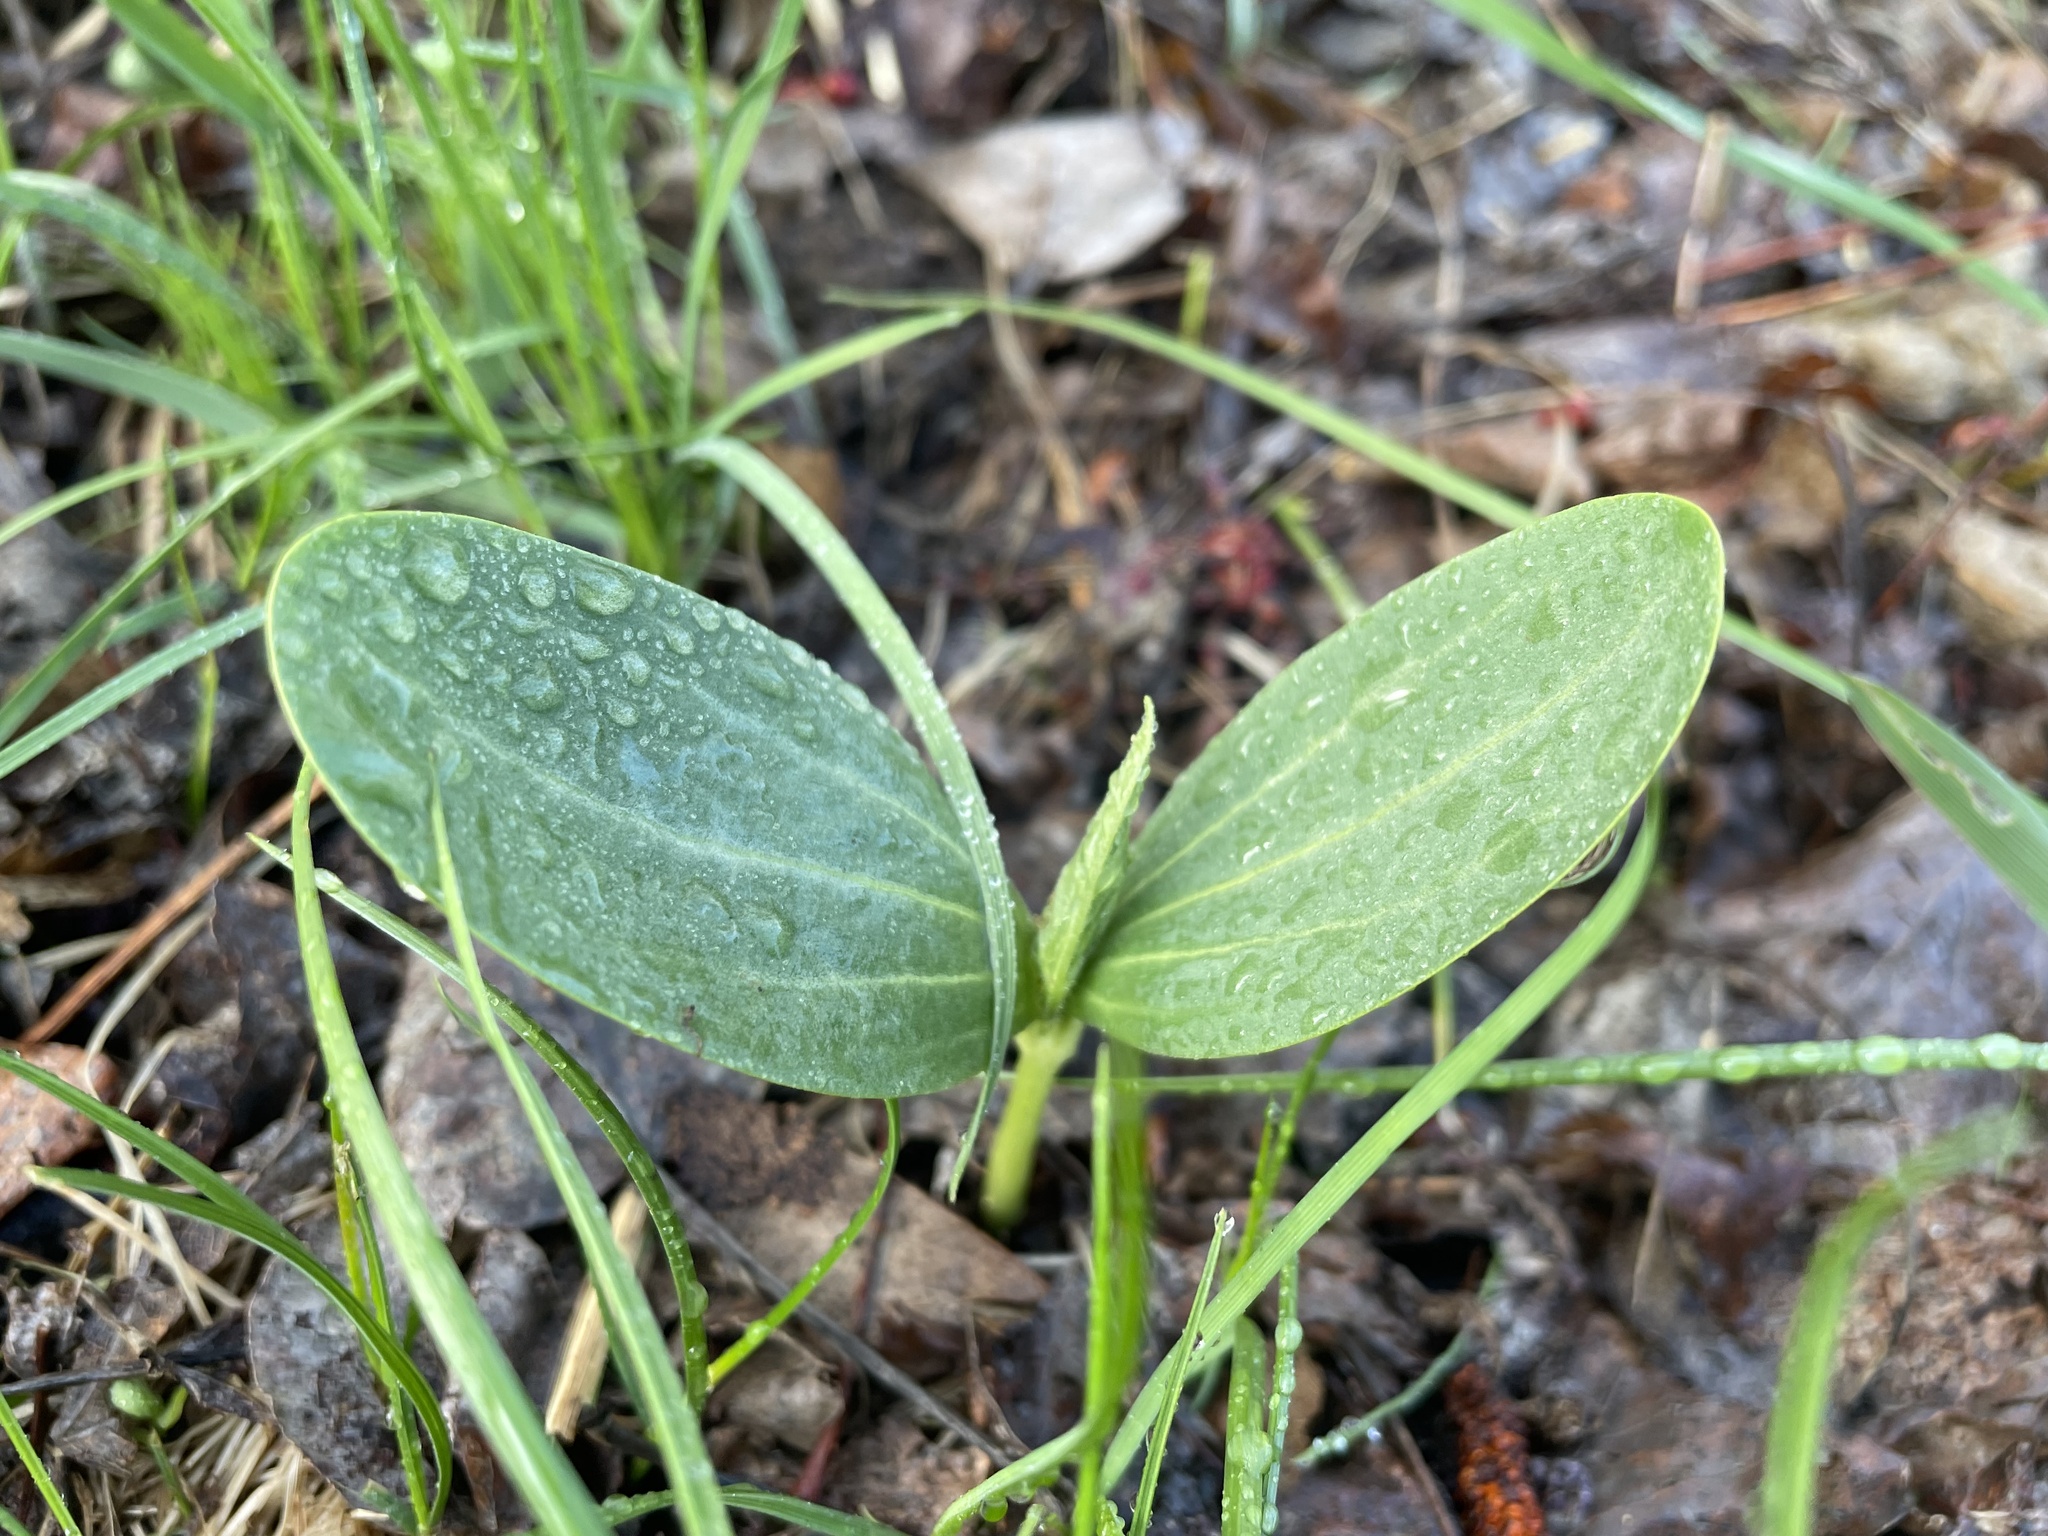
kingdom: Plantae
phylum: Tracheophyta
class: Magnoliopsida
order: Cucurbitales
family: Cucurbitaceae
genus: Echinocystis
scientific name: Echinocystis lobata
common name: Wild cucumber
